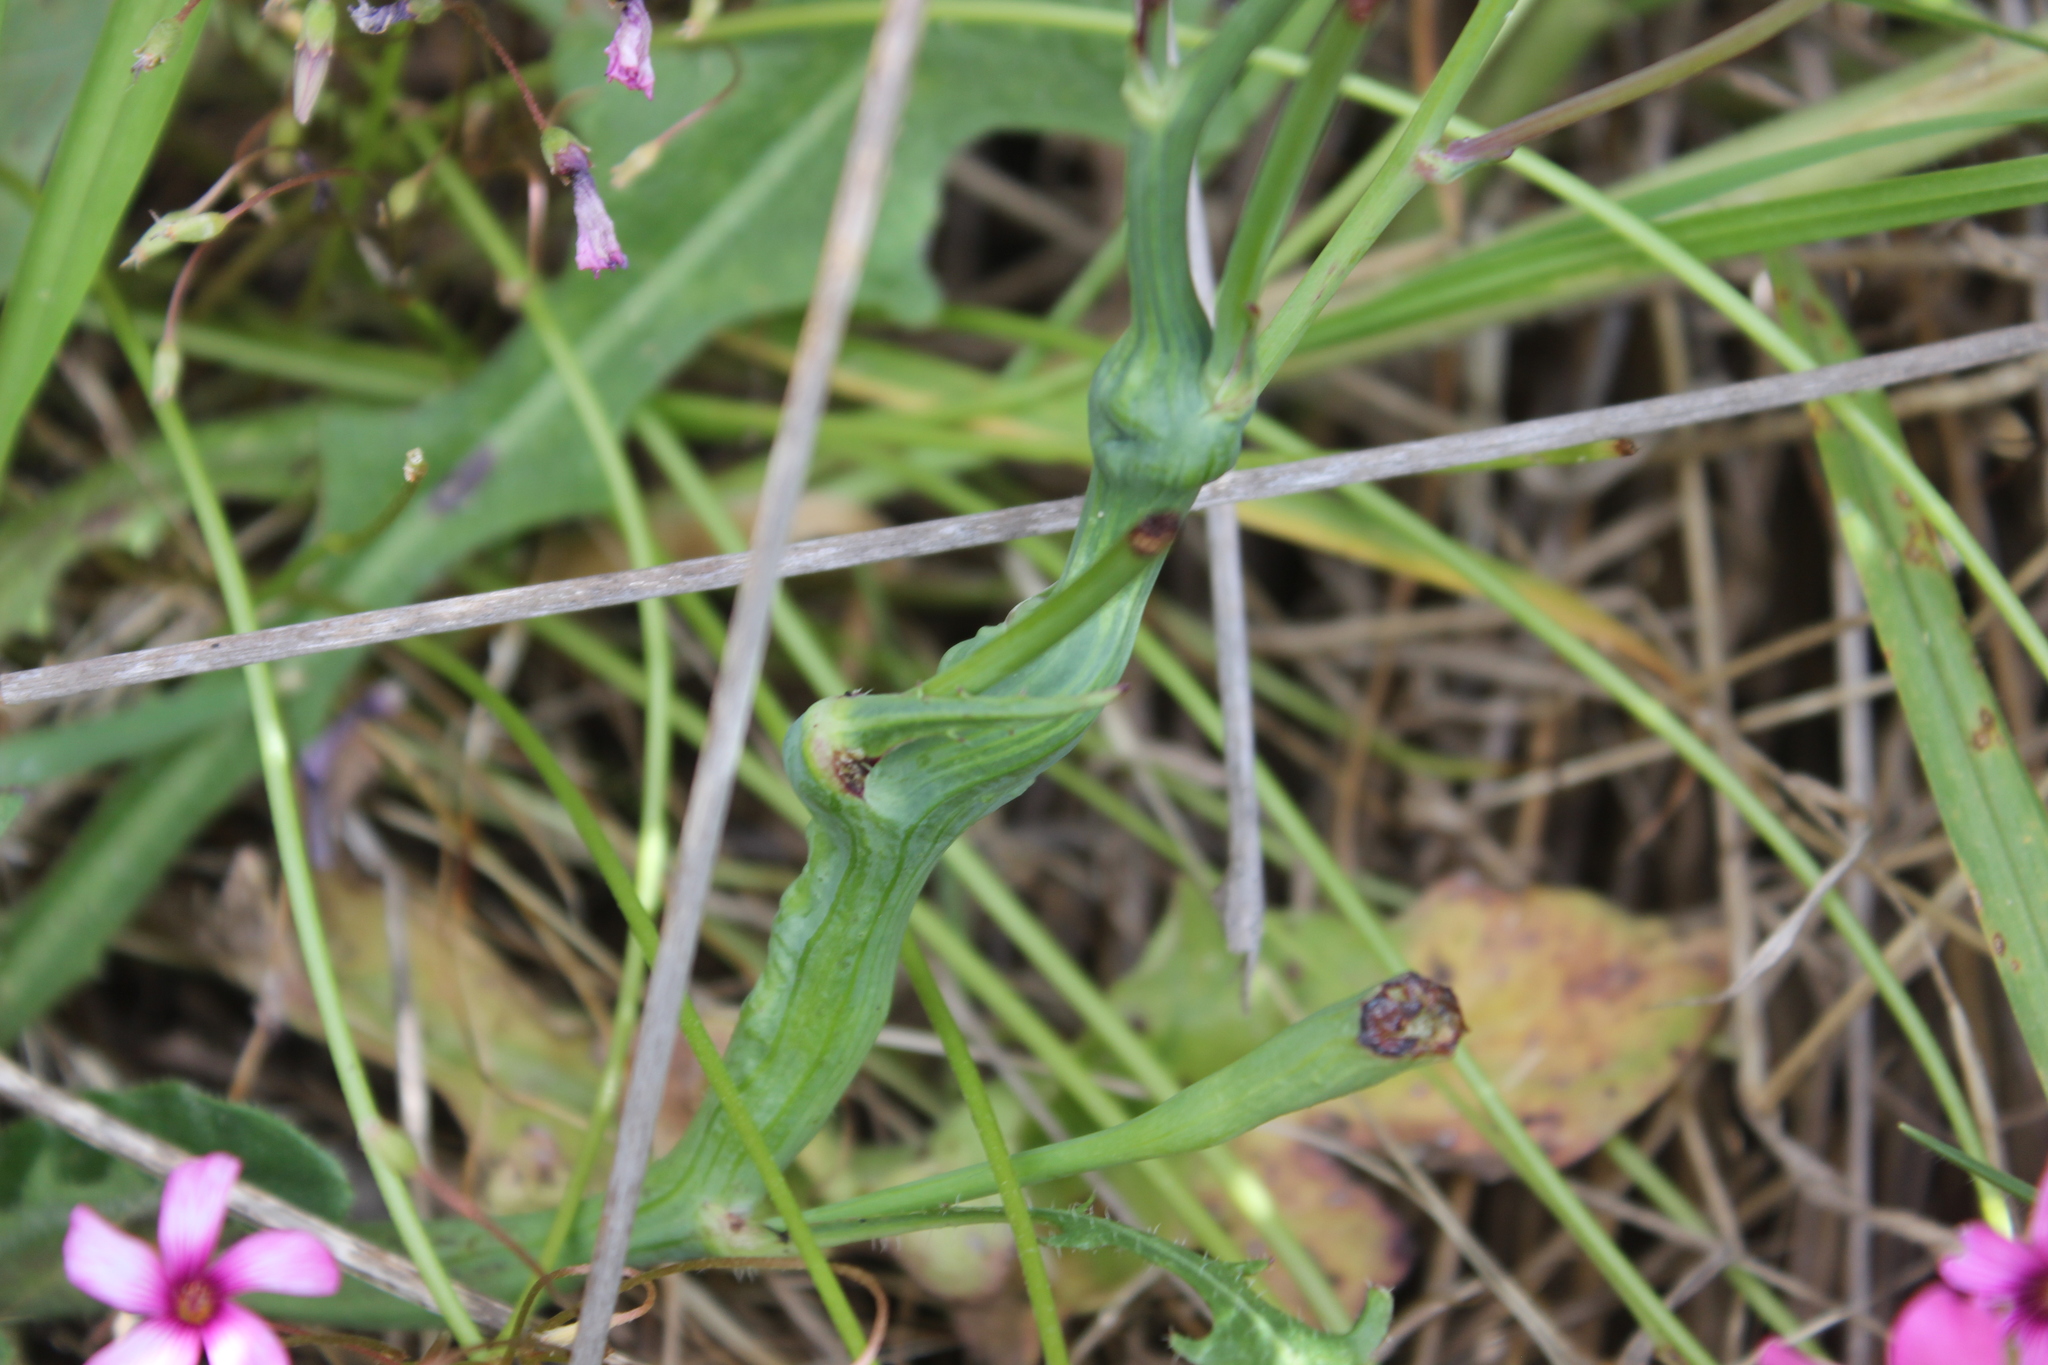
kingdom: Animalia
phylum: Arthropoda
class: Insecta
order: Hymenoptera
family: Cynipidae
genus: Phanacis
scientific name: Phanacis hypochoeridis
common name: Gall wasp
